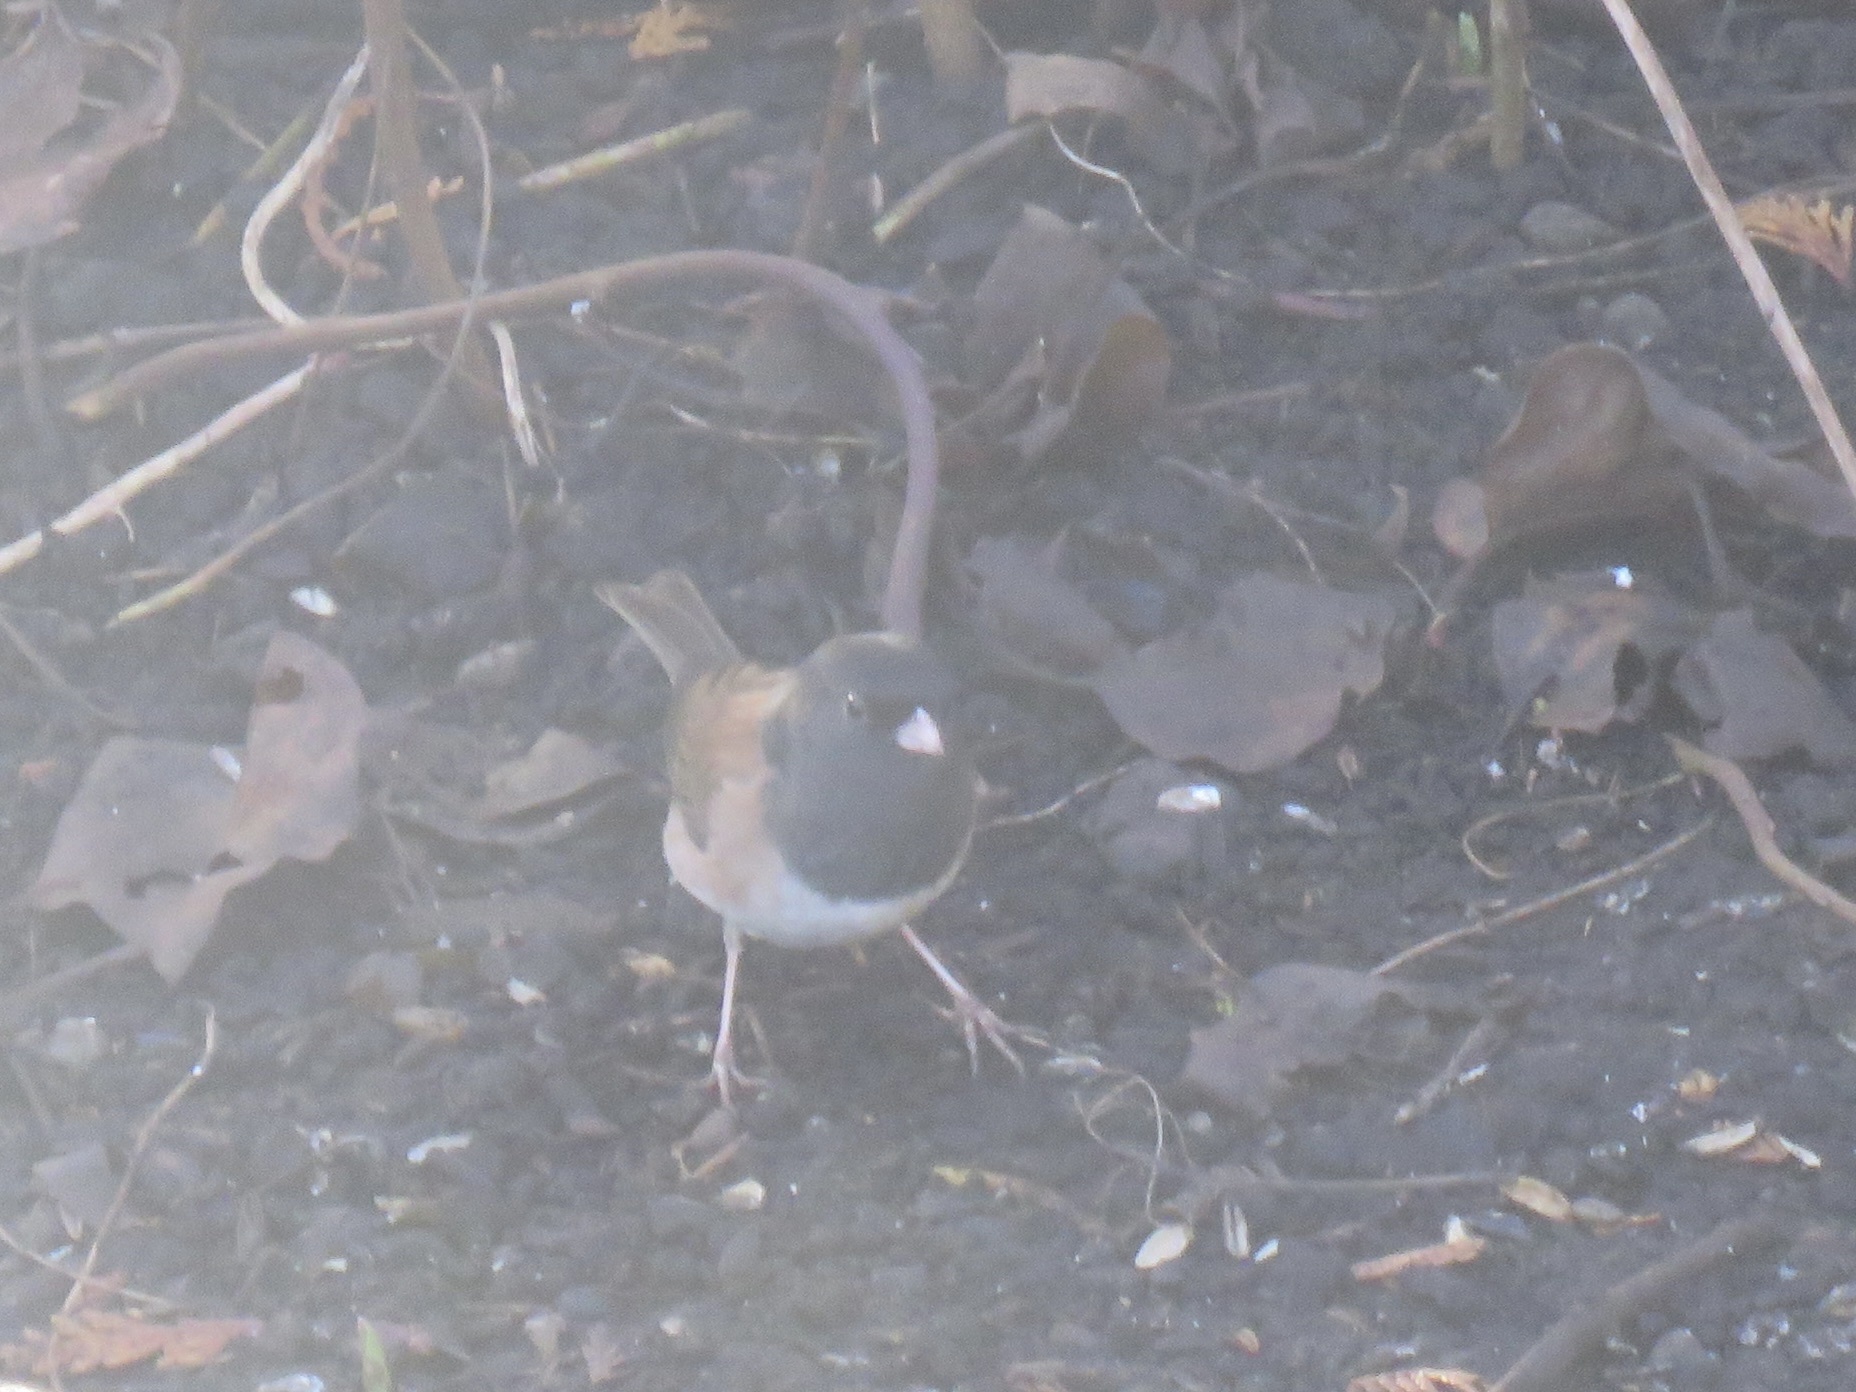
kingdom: Animalia
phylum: Chordata
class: Aves
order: Passeriformes
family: Passerellidae
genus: Junco
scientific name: Junco hyemalis
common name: Dark-eyed junco
